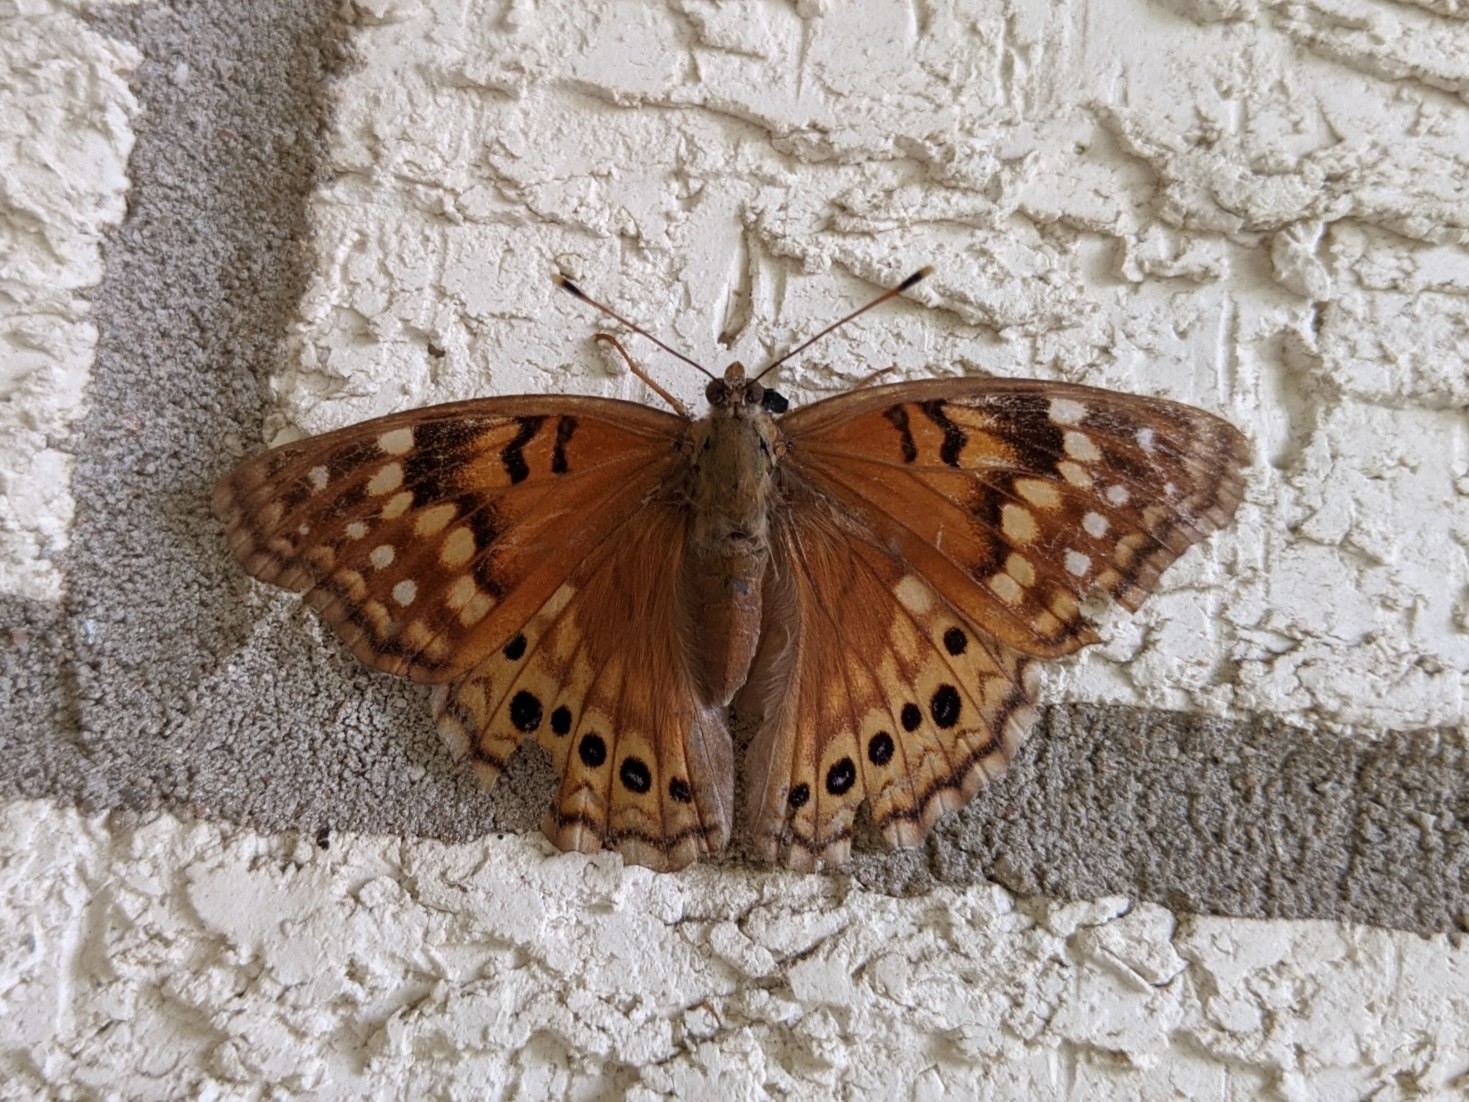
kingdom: Animalia
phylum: Arthropoda
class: Insecta
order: Lepidoptera
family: Nymphalidae
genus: Asterocampa
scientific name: Asterocampa clyton
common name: Tawny emperor
